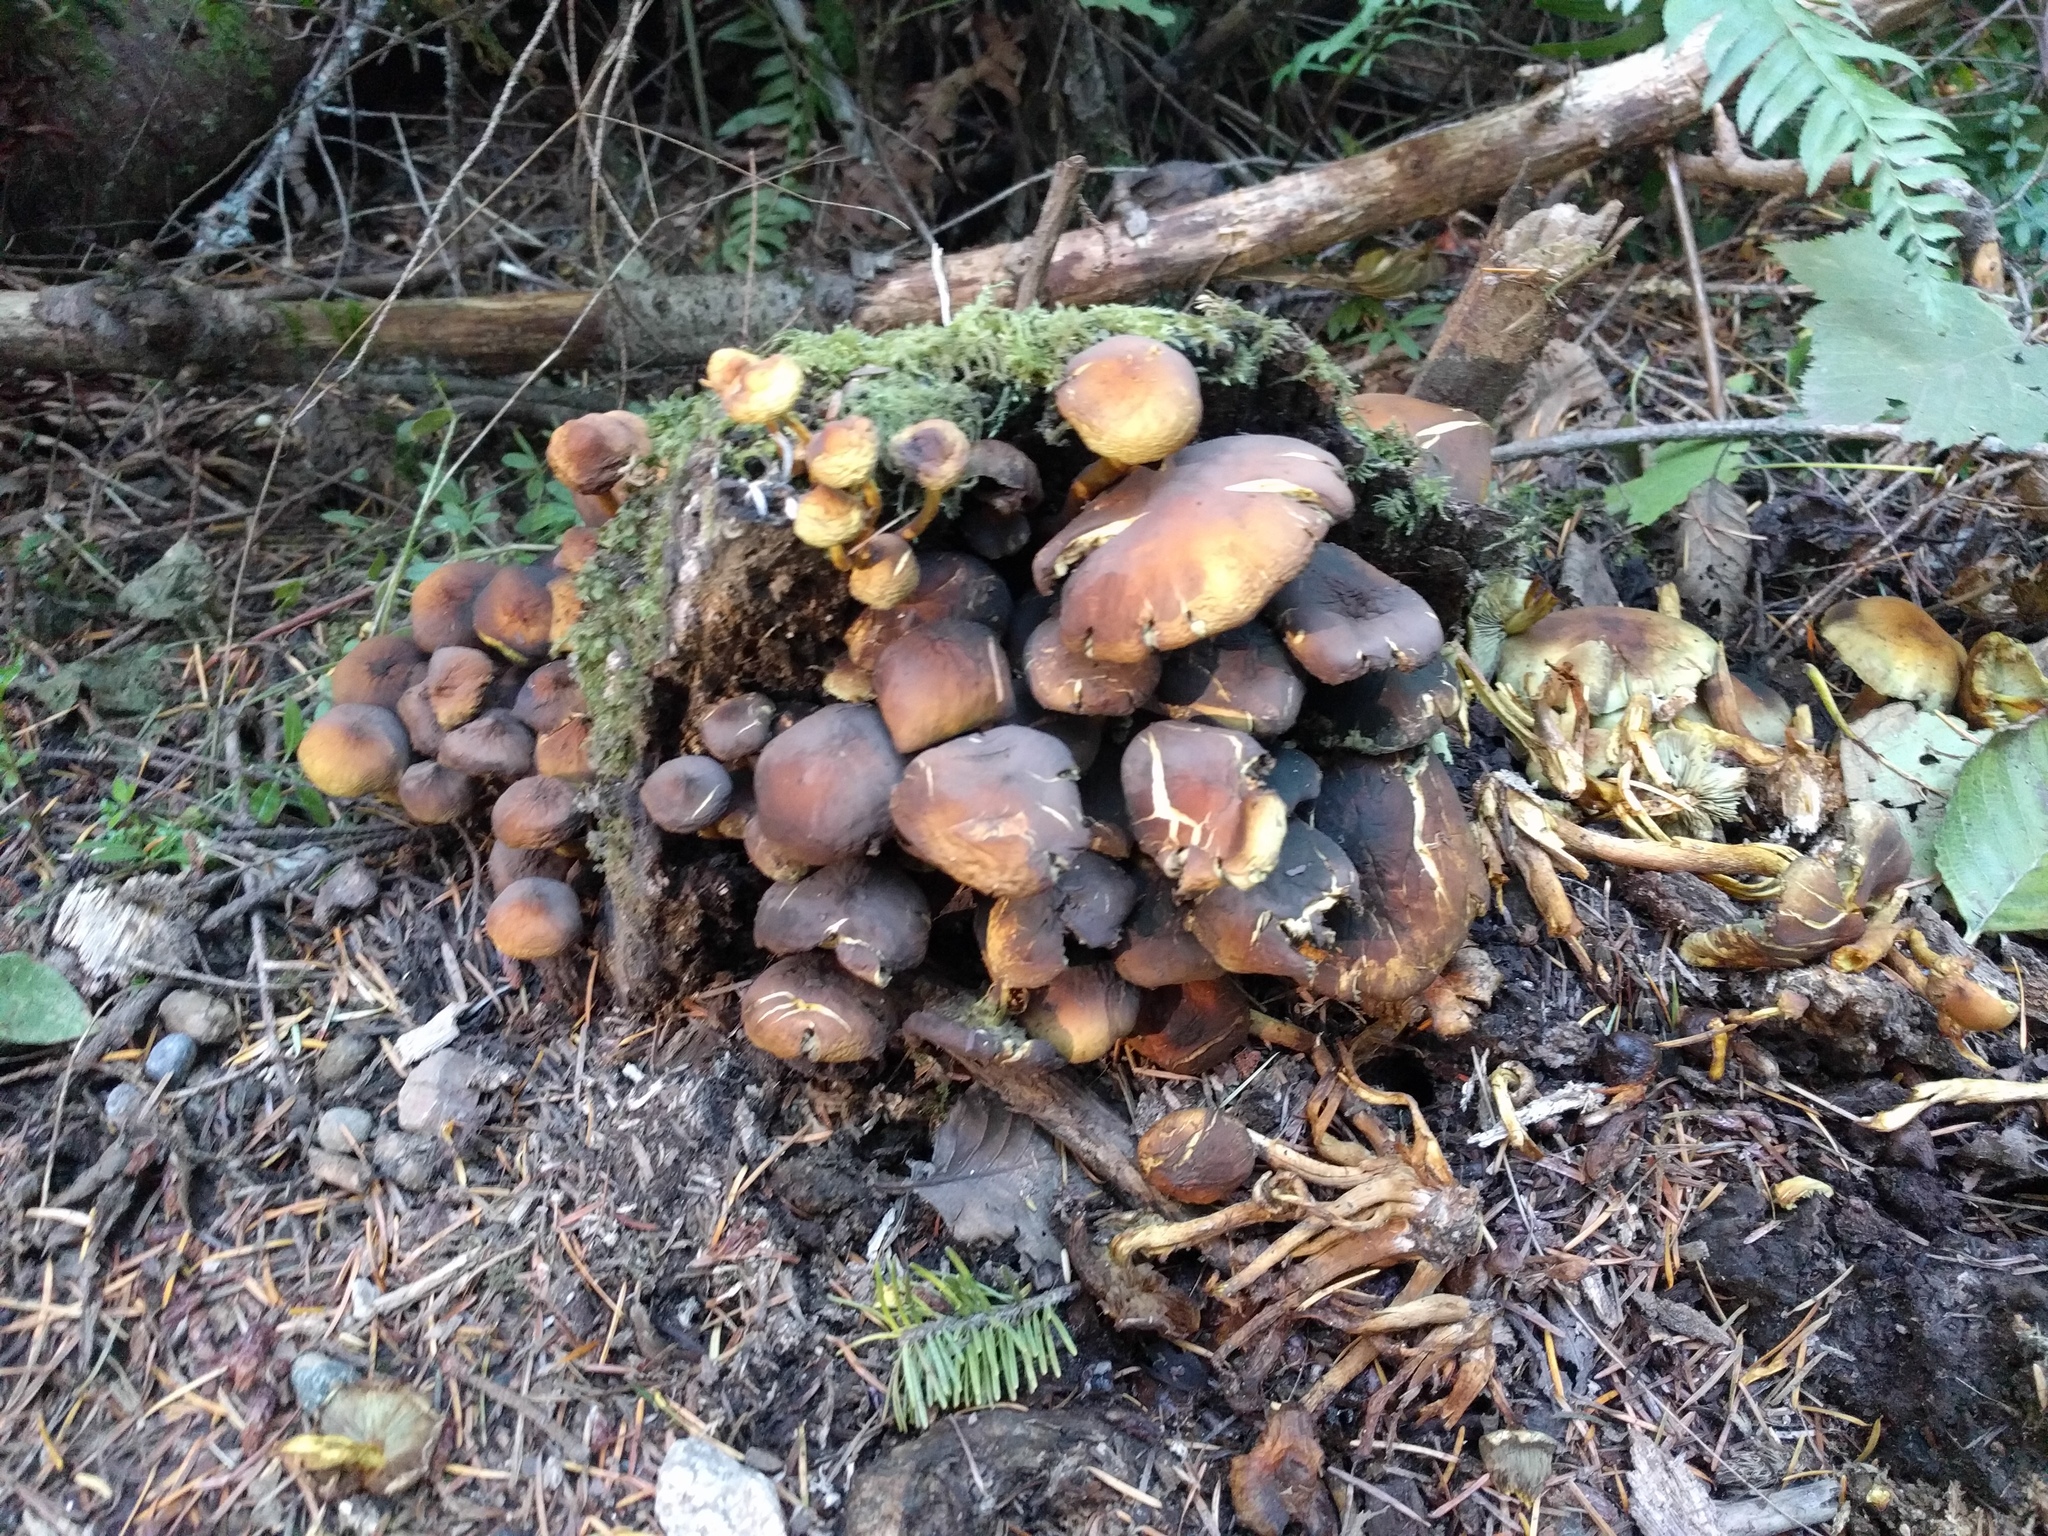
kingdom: Fungi
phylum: Basidiomycota
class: Agaricomycetes
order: Agaricales
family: Strophariaceae
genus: Hypholoma
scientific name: Hypholoma fasciculare
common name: Sulphur tuft
